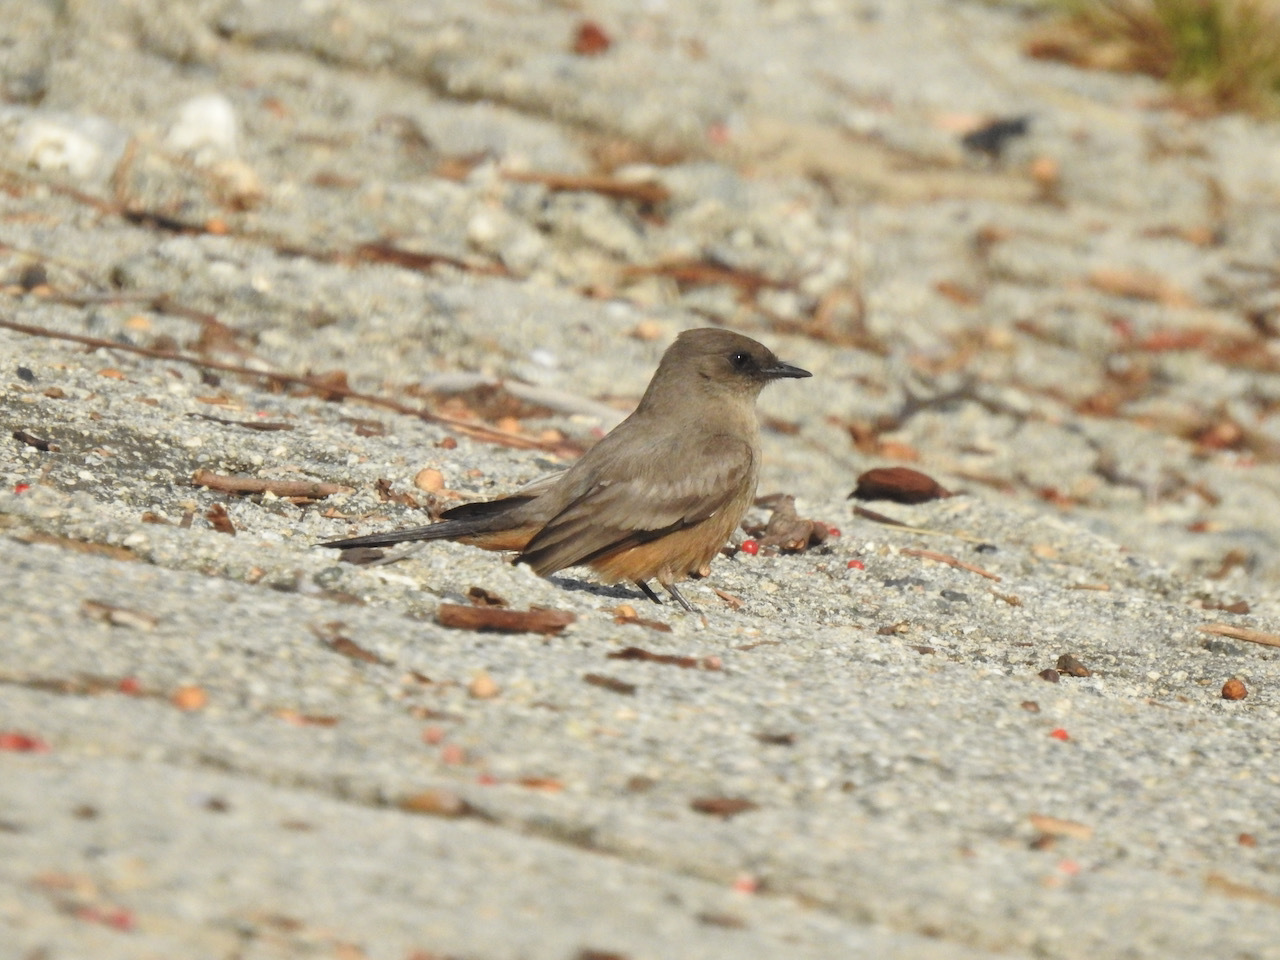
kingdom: Animalia
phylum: Chordata
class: Aves
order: Passeriformes
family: Tyrannidae
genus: Sayornis
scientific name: Sayornis saya
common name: Say's phoebe
